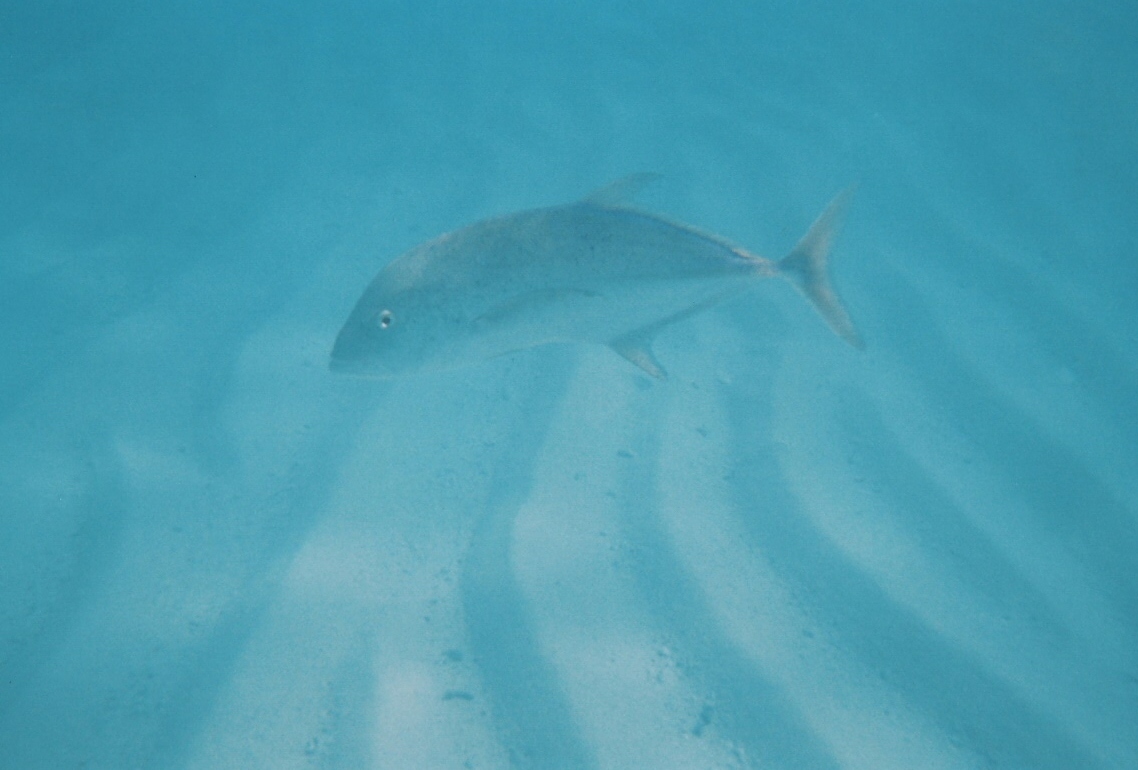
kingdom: Animalia
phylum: Chordata
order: Perciformes
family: Carangidae
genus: Caranx
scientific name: Caranx melampygus
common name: Bluefin trevally
